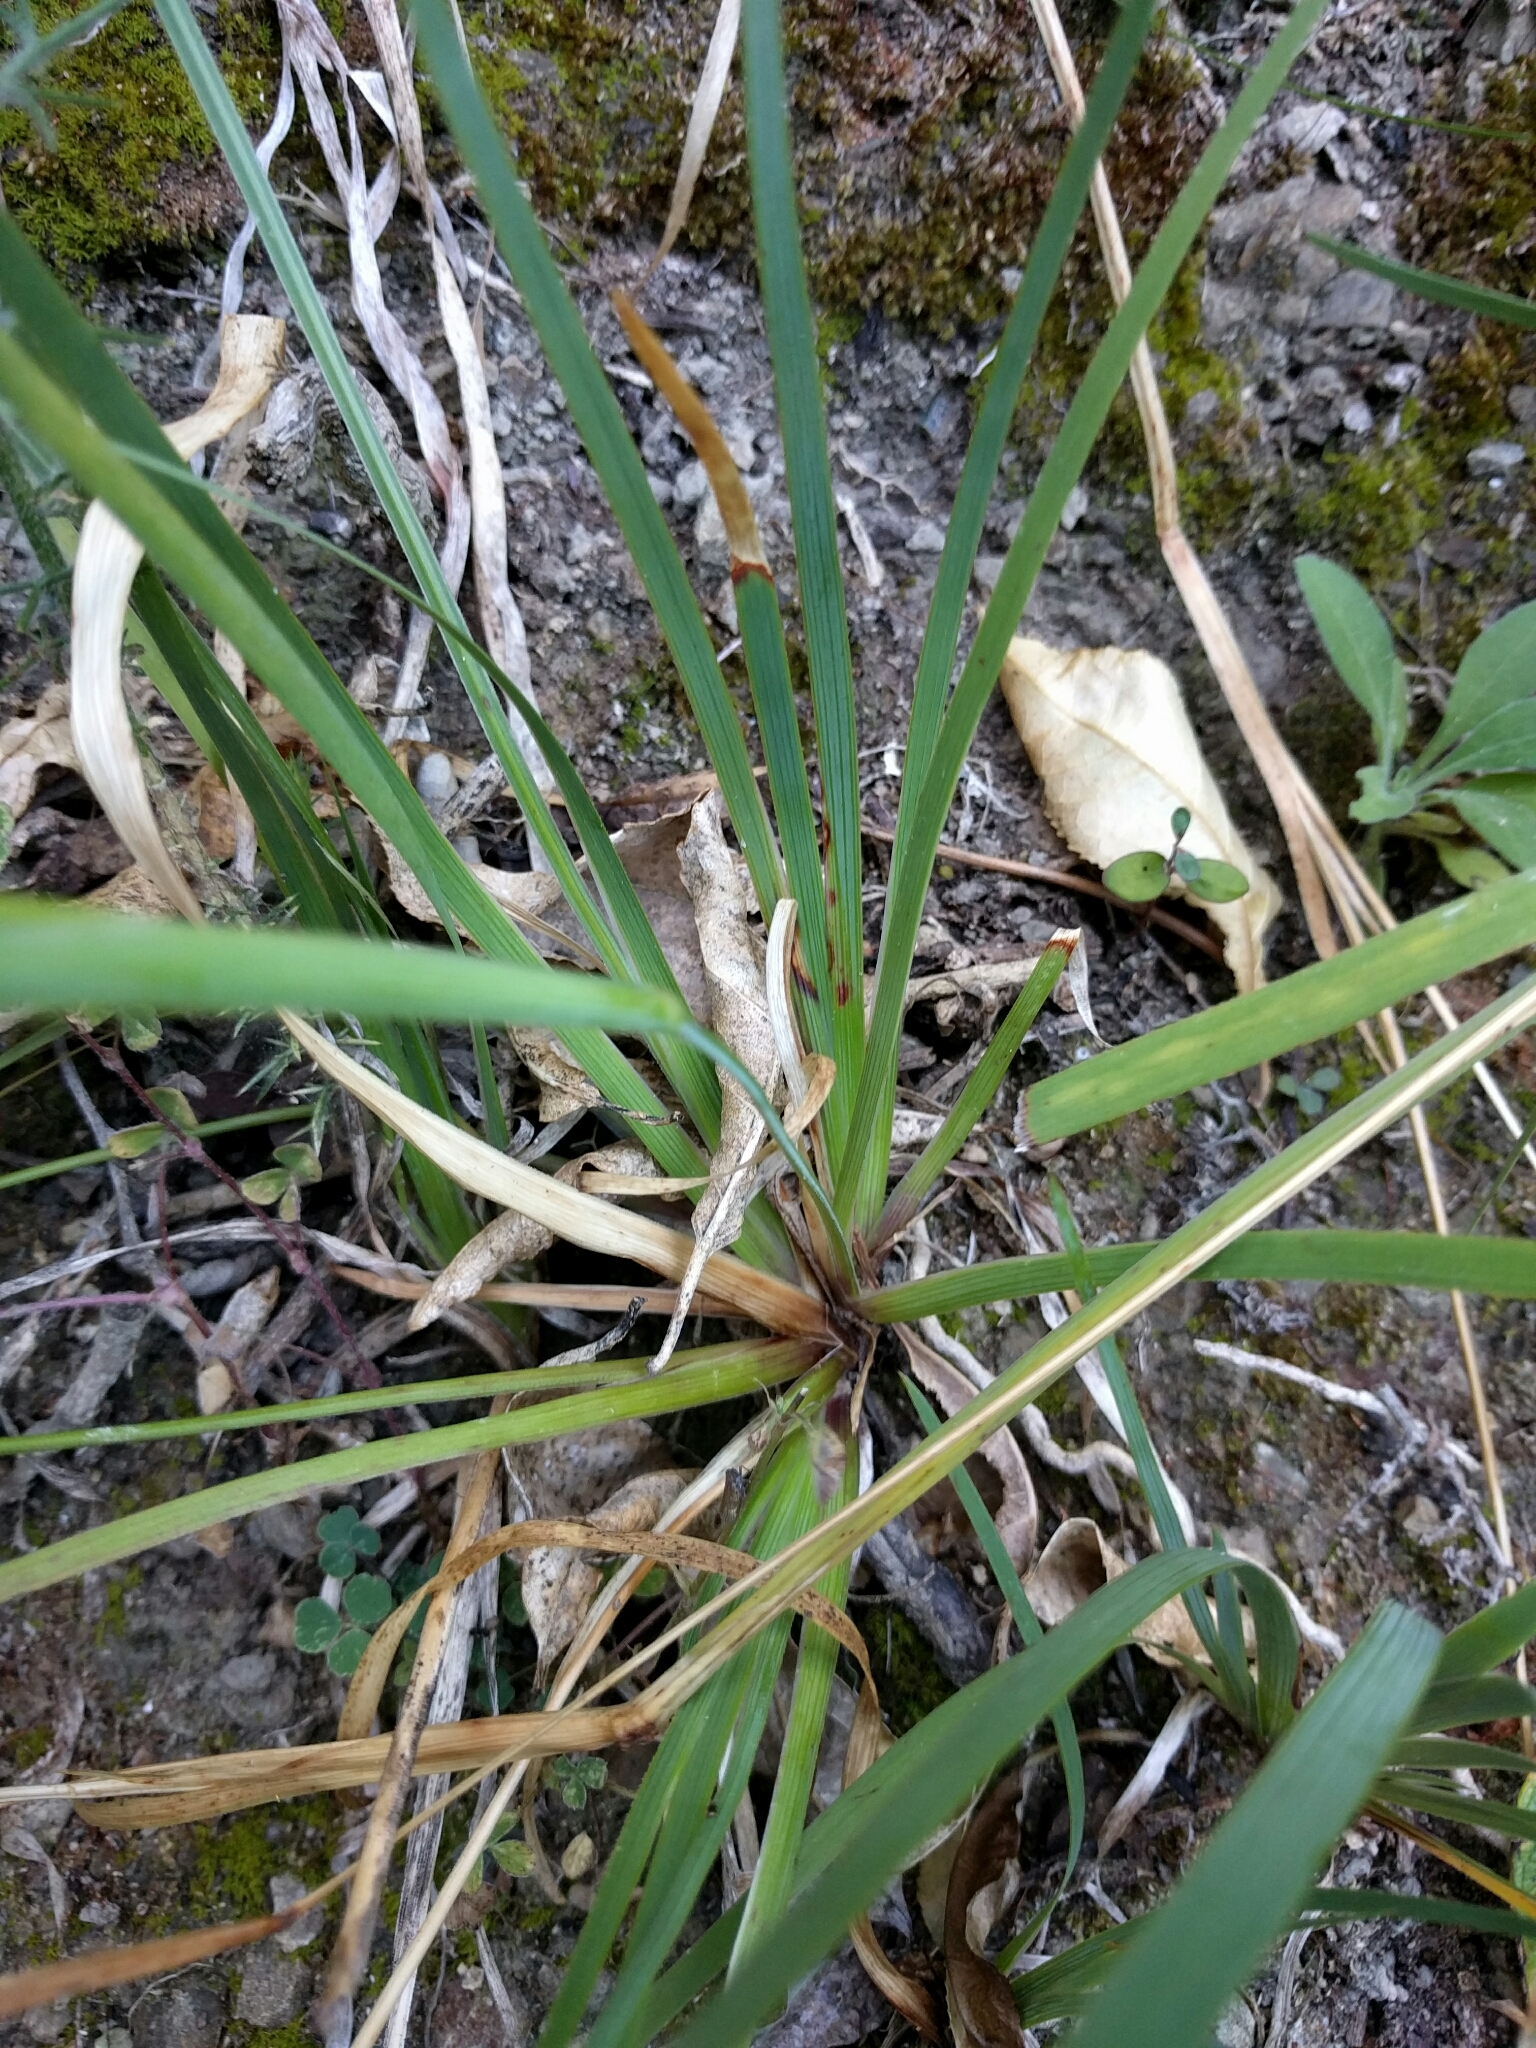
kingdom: Plantae
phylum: Tracheophyta
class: Liliopsida
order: Asparagales
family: Iridaceae
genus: Sisyrinchium
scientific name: Sisyrinchium micranthum
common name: Bermuda pigroot
